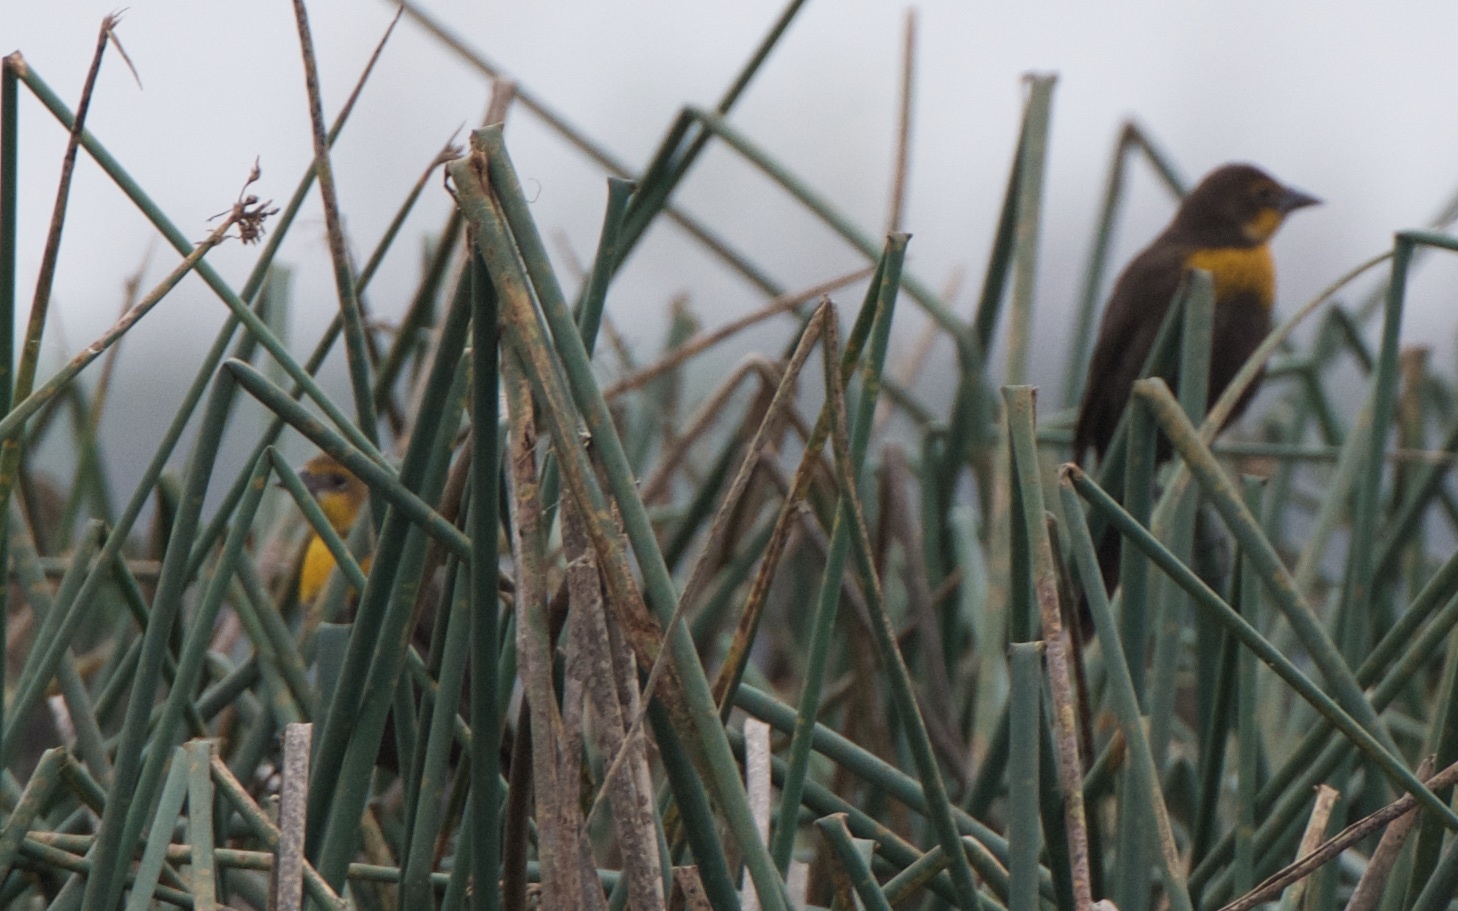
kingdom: Animalia
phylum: Chordata
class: Aves
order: Passeriformes
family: Icteridae
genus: Xanthocephalus
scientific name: Xanthocephalus xanthocephalus
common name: Yellow-headed blackbird
